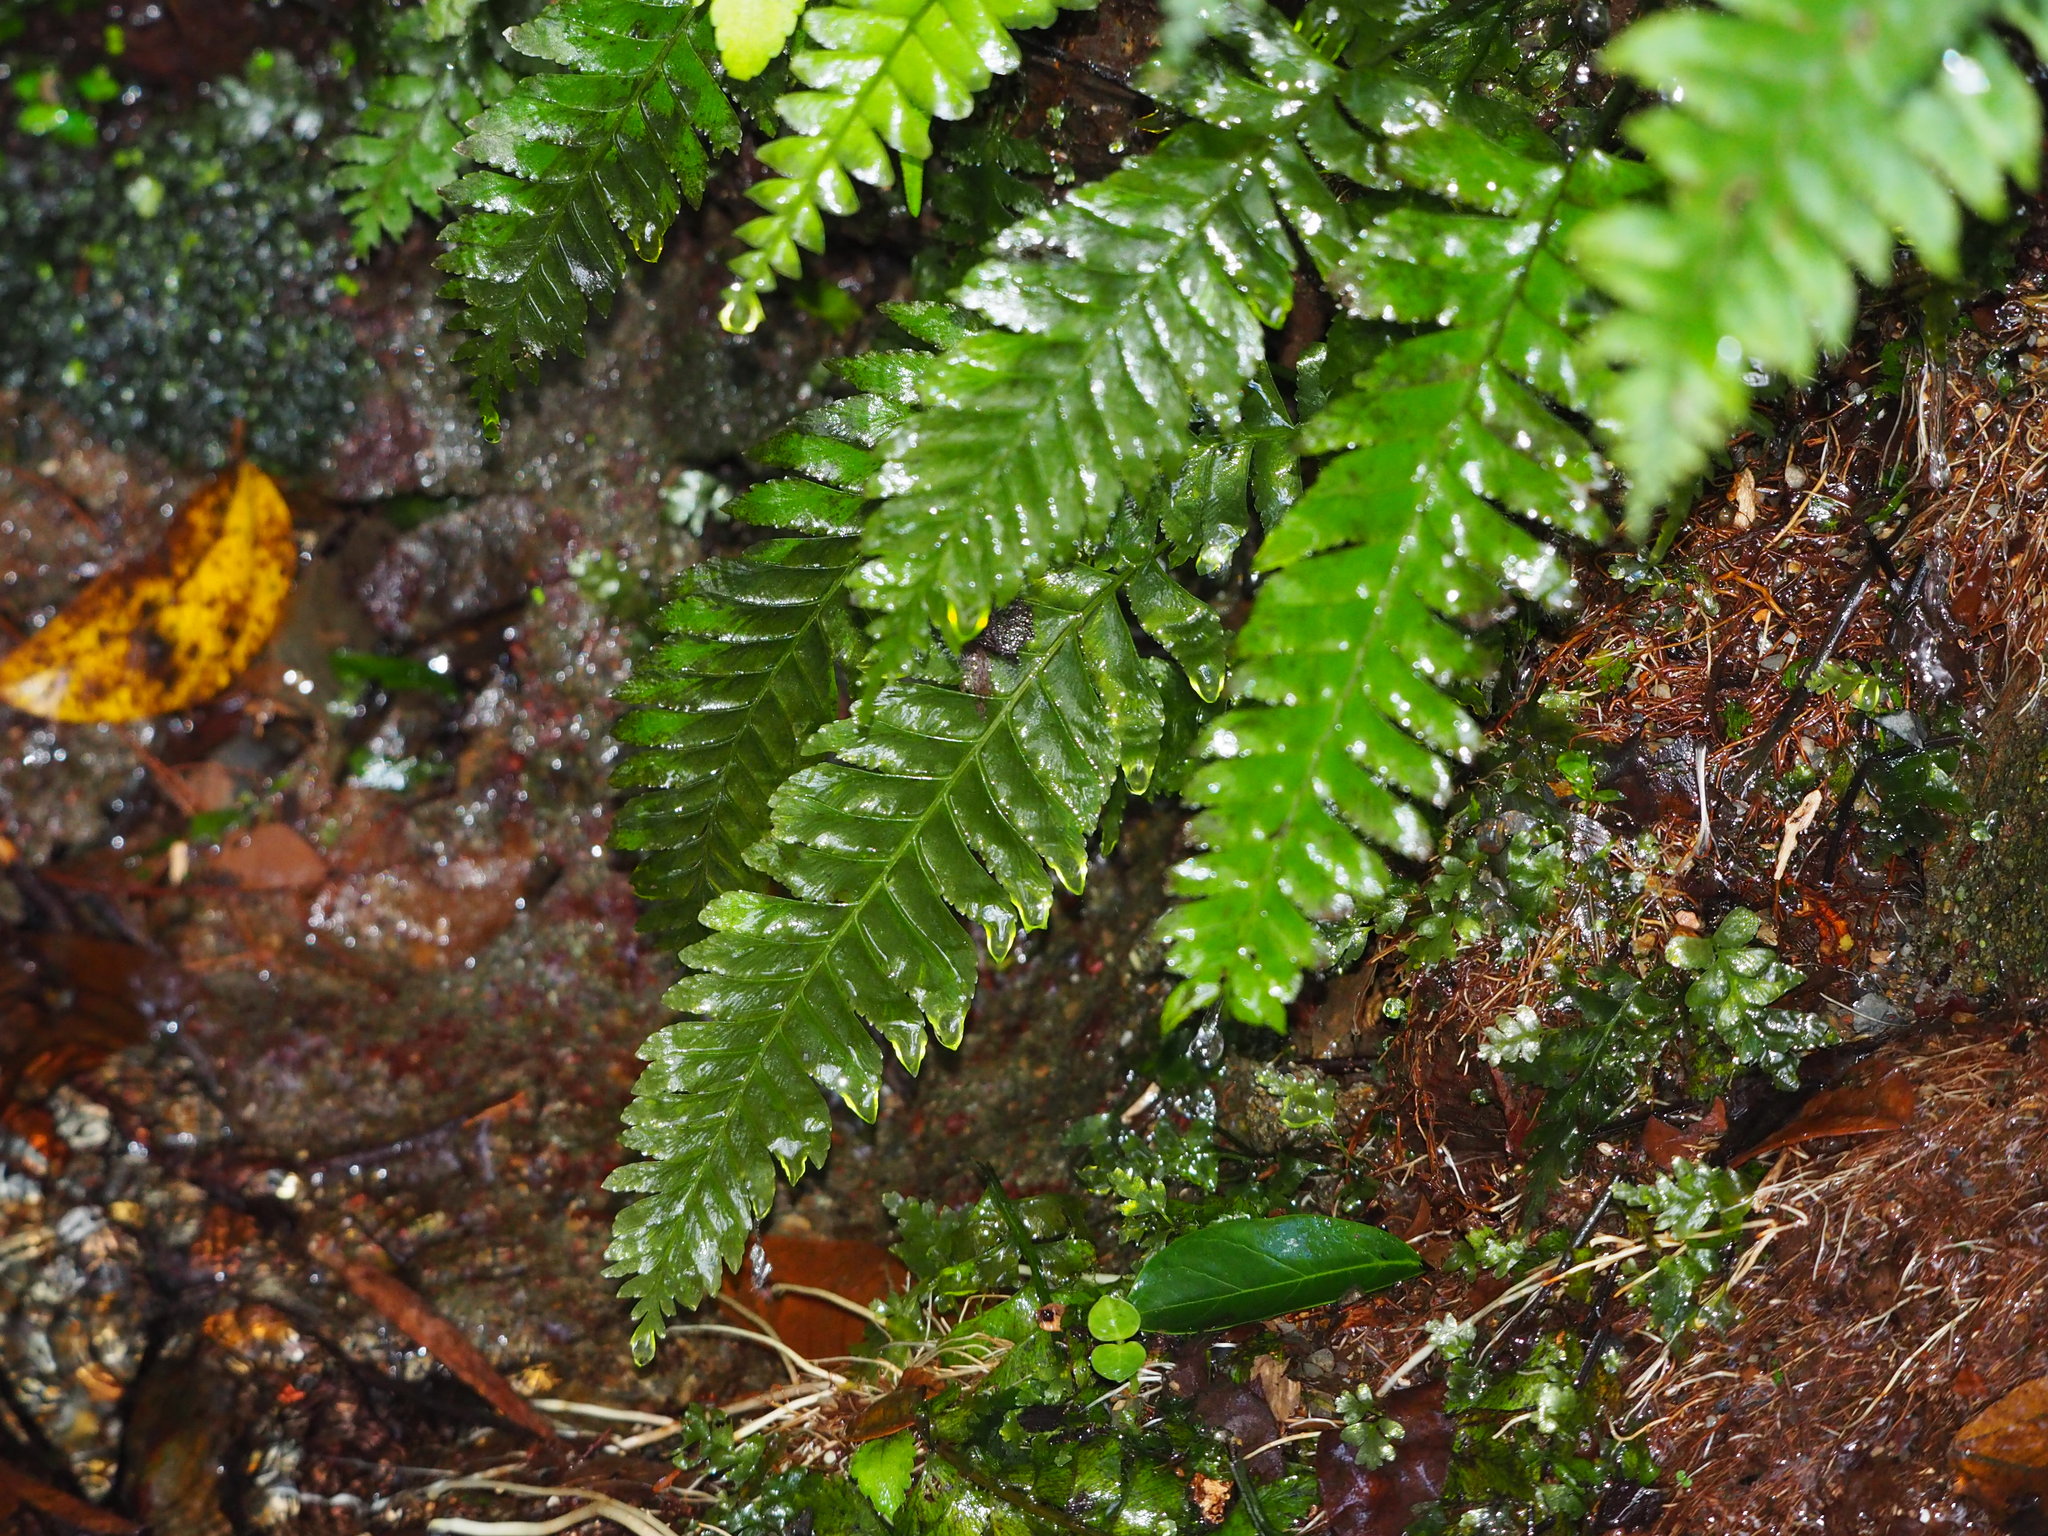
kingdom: Plantae
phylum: Tracheophyta
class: Polypodiopsida
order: Polypodiales
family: Aspleniaceae
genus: Hymenasplenium
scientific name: Hymenasplenium obscurum
